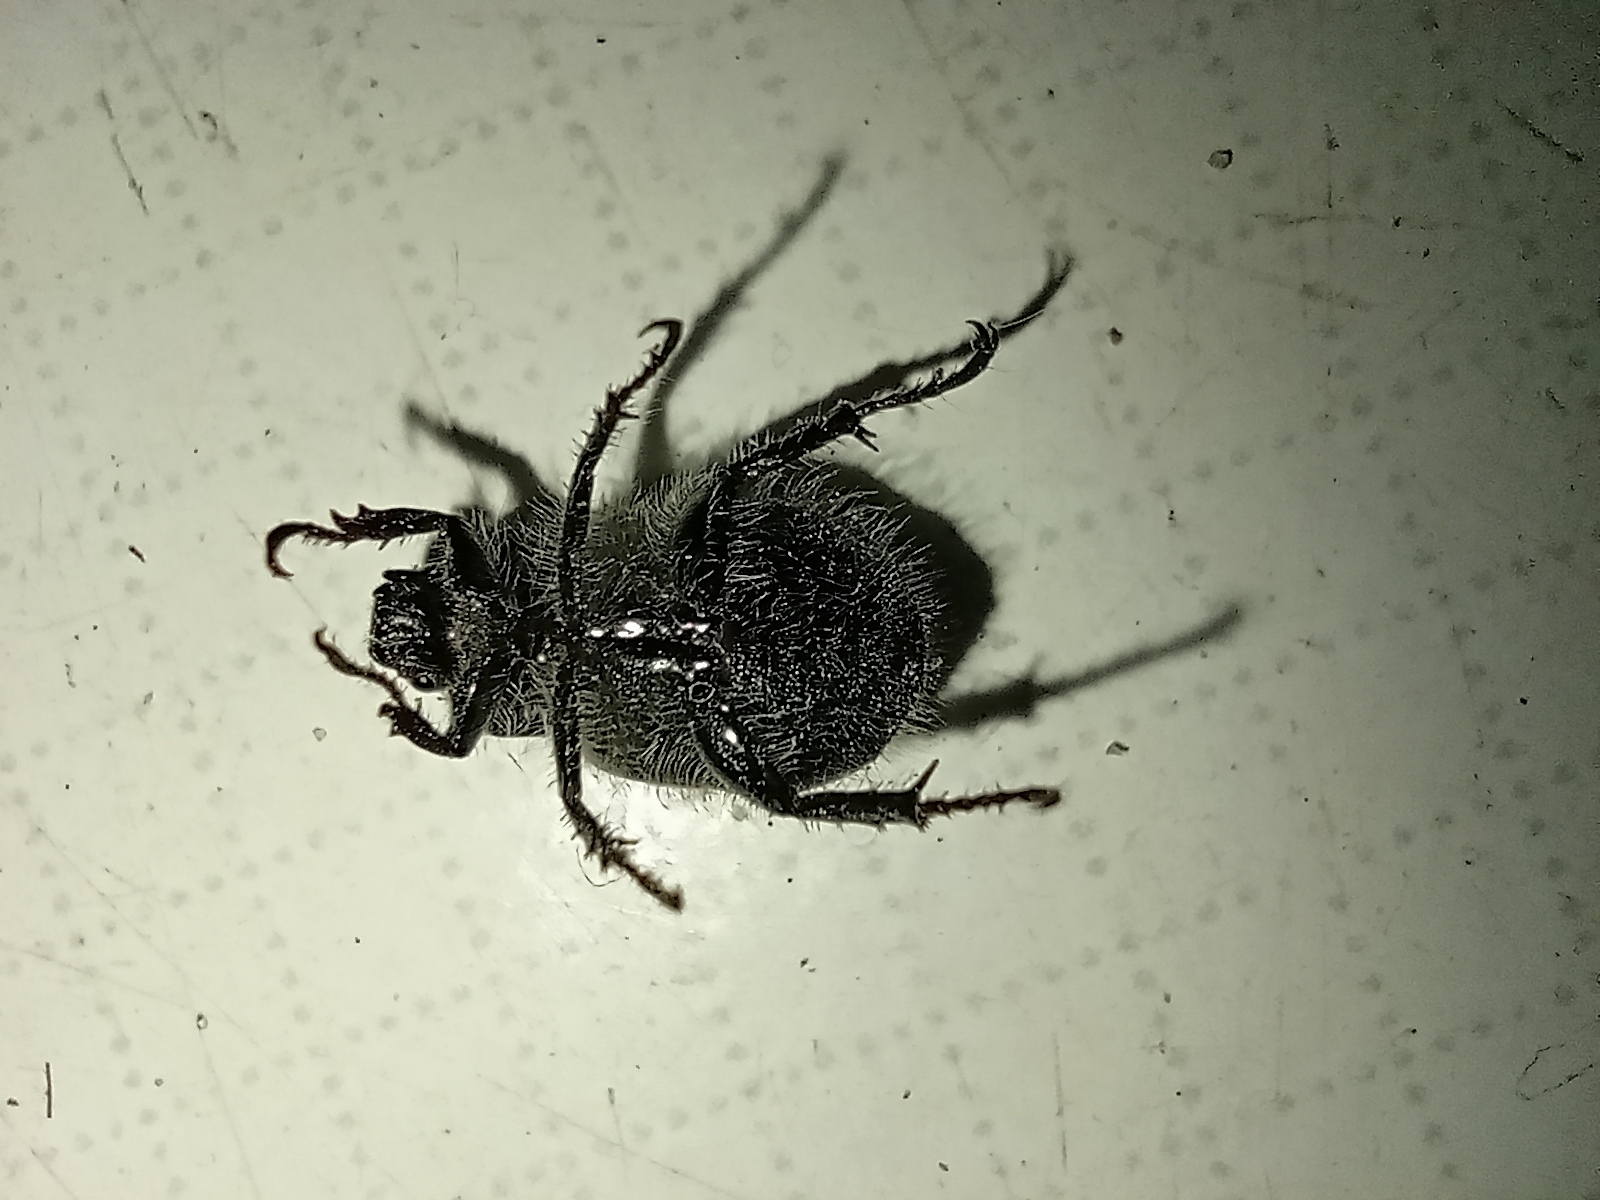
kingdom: Animalia
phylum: Arthropoda
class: Insecta
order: Coleoptera
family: Scarabaeidae
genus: Phyllopertha
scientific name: Phyllopertha horticola
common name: Garden chafer
